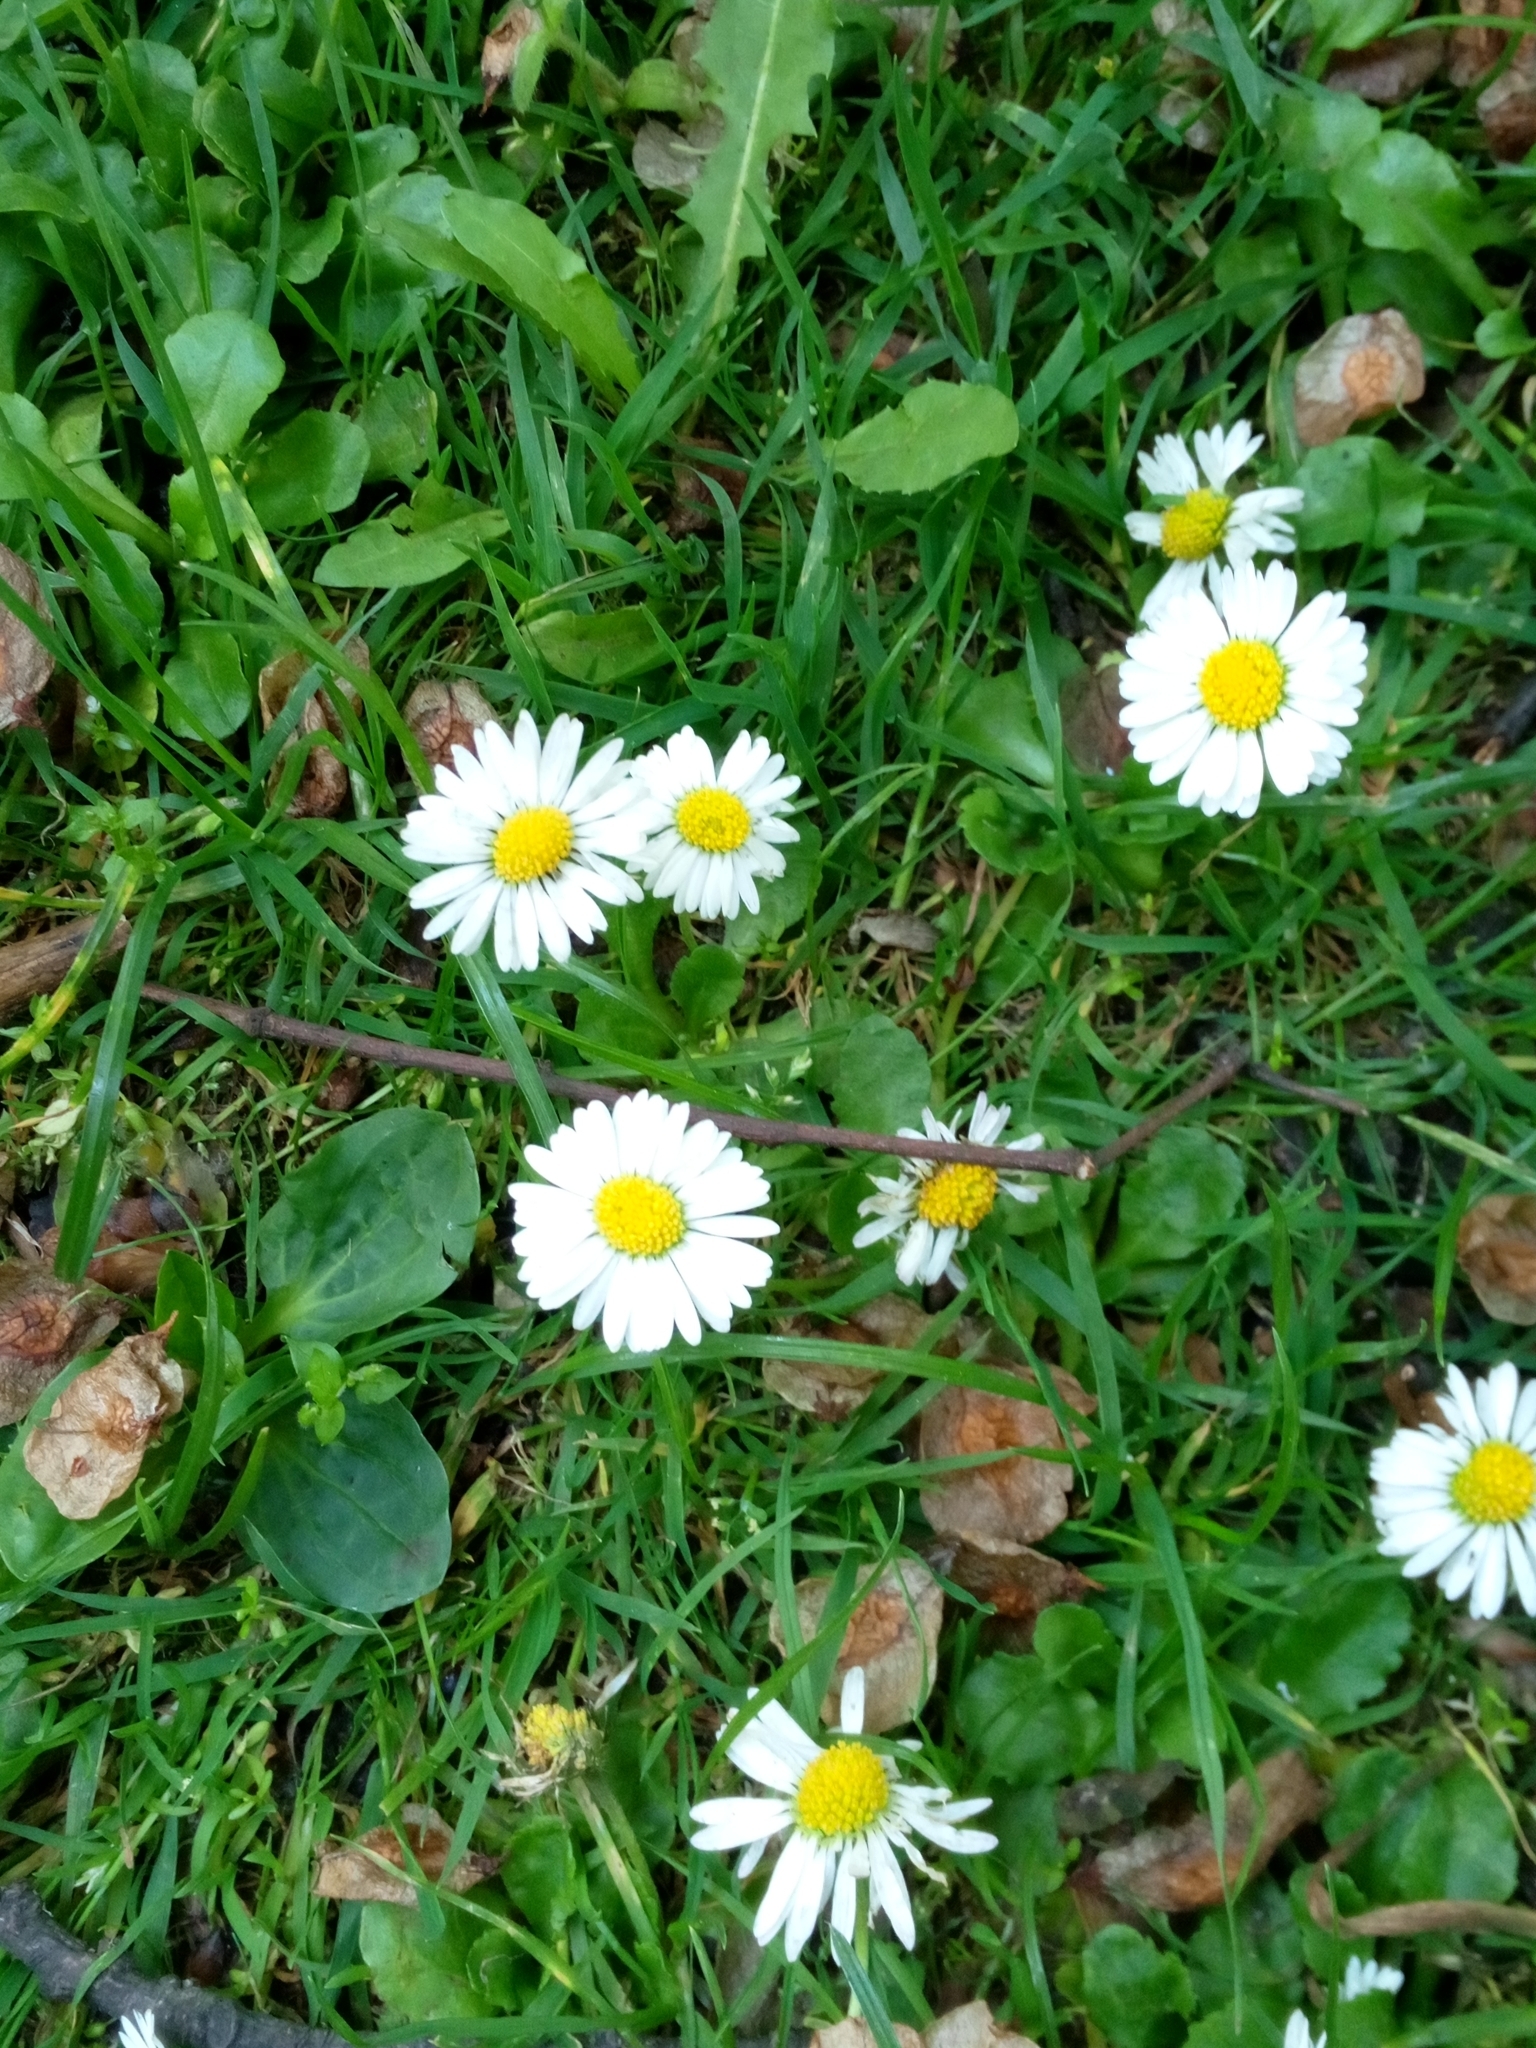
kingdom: Plantae
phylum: Tracheophyta
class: Magnoliopsida
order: Asterales
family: Asteraceae
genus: Bellis
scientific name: Bellis perennis
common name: Lawndaisy
